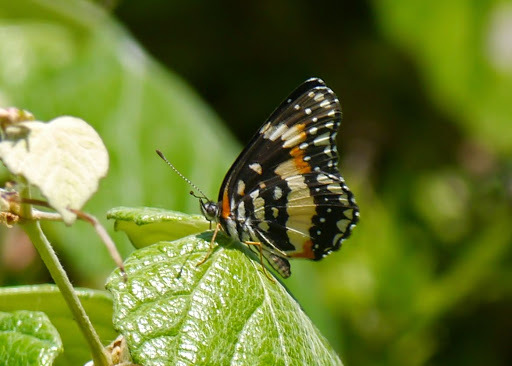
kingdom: Animalia
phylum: Arthropoda
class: Insecta
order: Lepidoptera
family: Nymphalidae
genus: Chlosyne
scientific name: Chlosyne lacinia
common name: Bordered patch
